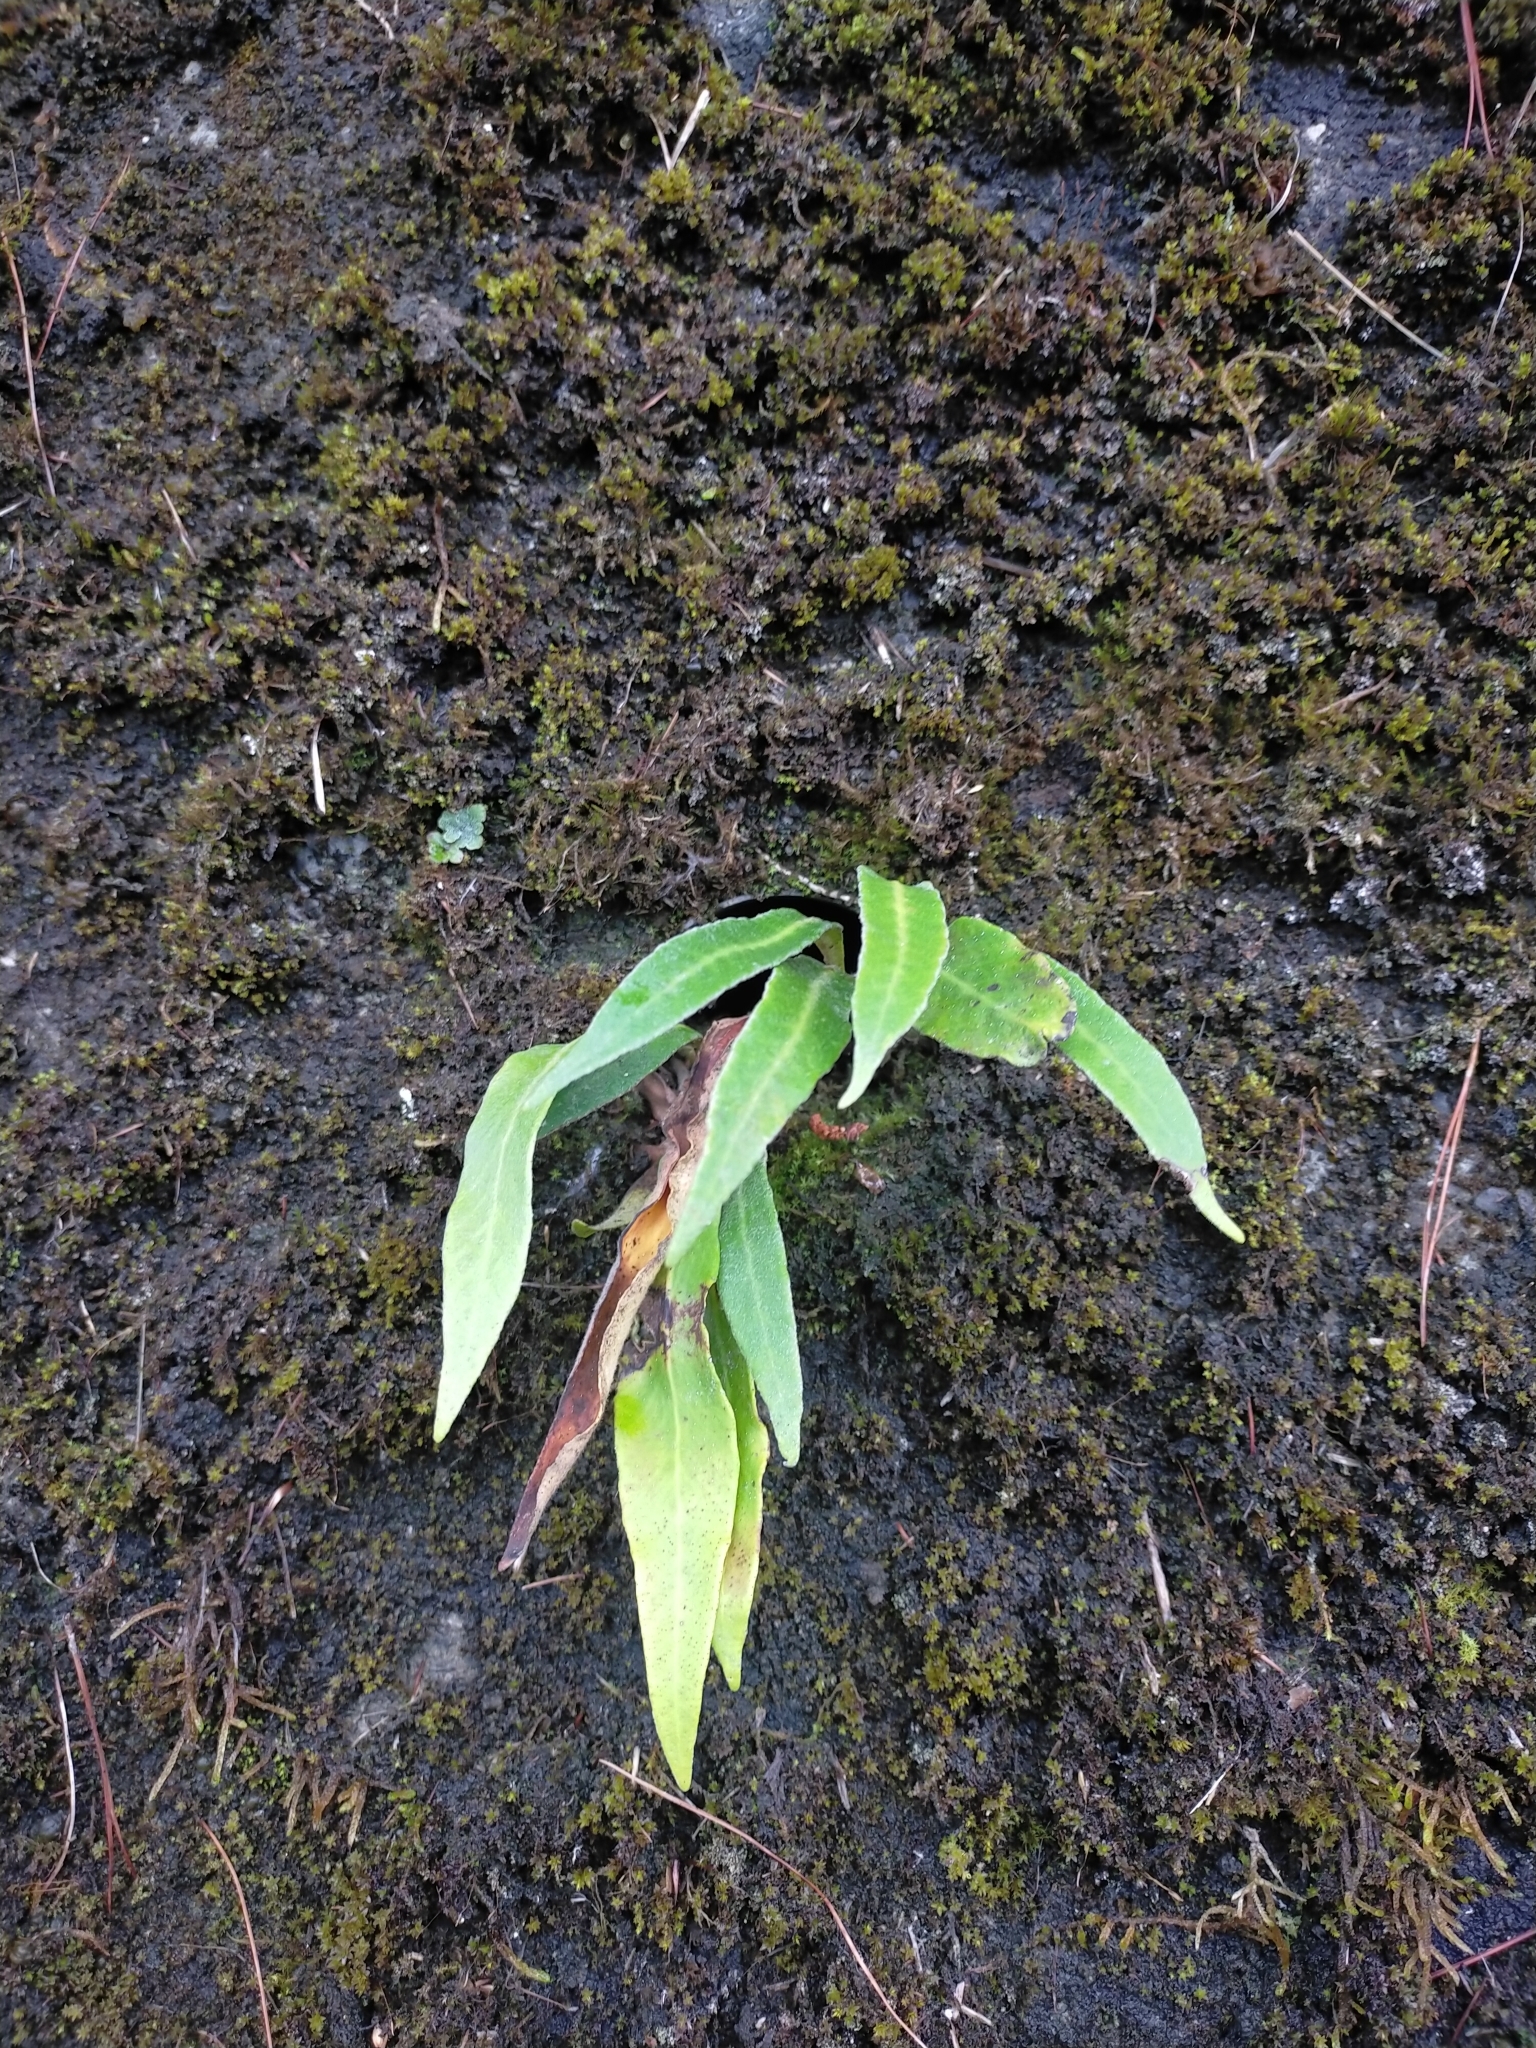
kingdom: Plantae
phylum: Tracheophyta
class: Polypodiopsida
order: Polypodiales
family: Polypodiaceae
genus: Pyrrosia
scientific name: Pyrrosia porosa
